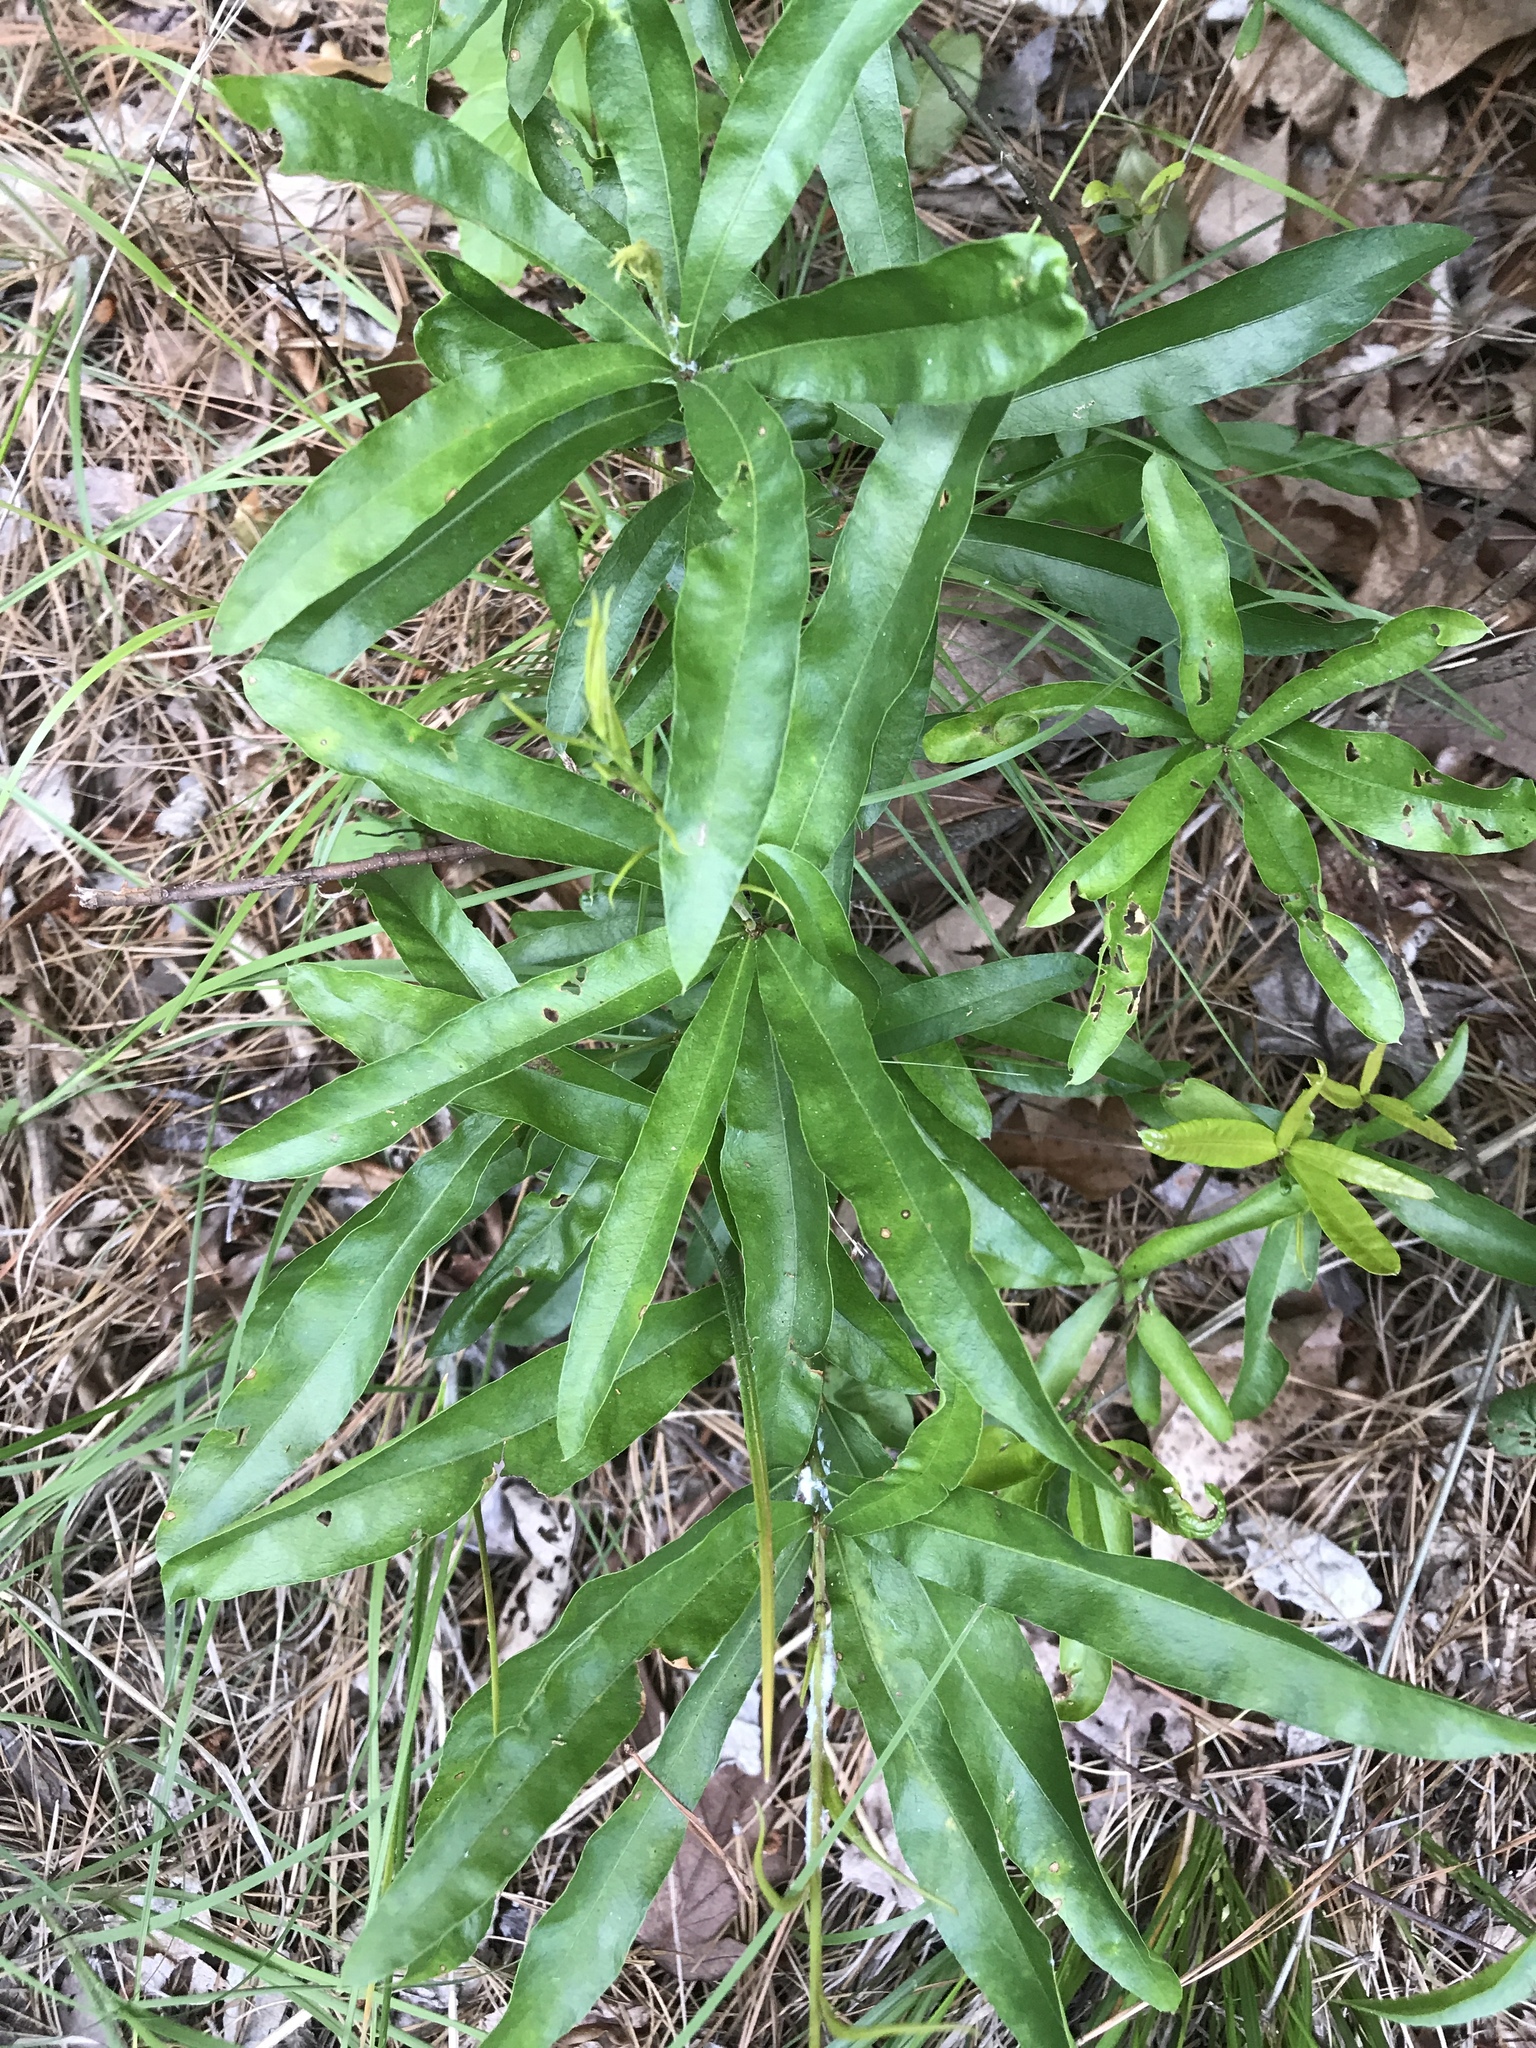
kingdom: Plantae
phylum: Tracheophyta
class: Magnoliopsida
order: Fagales
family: Fagaceae
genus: Quercus
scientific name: Quercus phellos
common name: Willow oak
